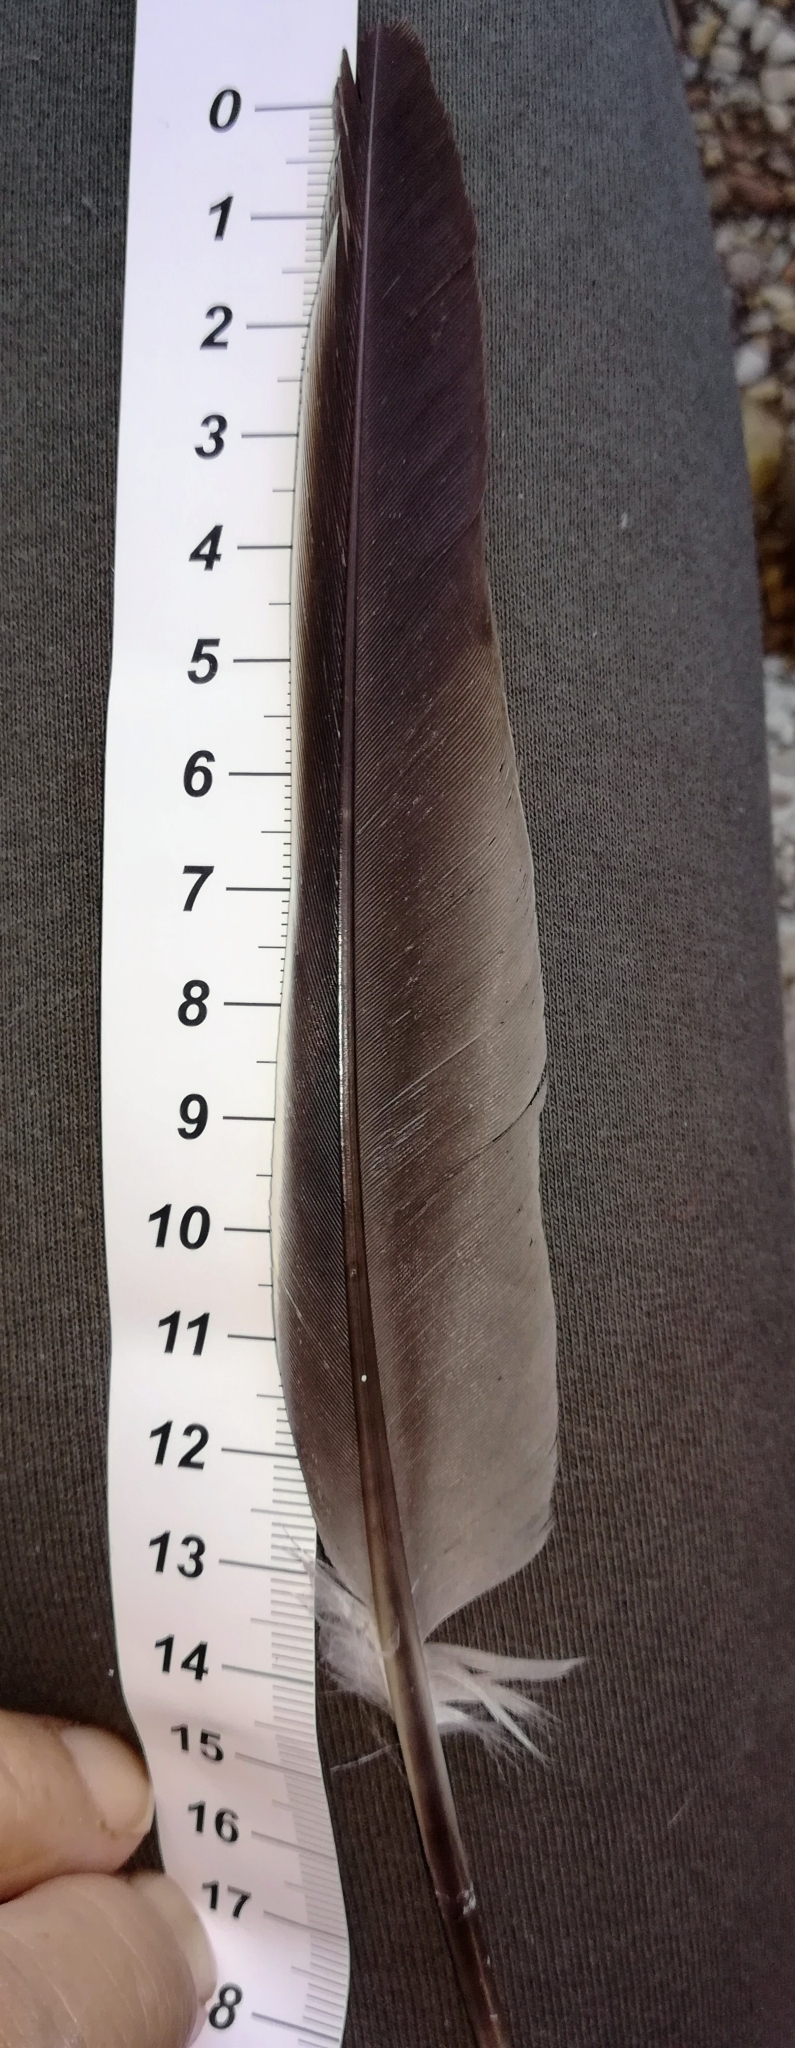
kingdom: Animalia
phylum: Chordata
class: Aves
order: Columbiformes
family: Columbidae
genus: Columba
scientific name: Columba palumbus
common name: Common wood pigeon
